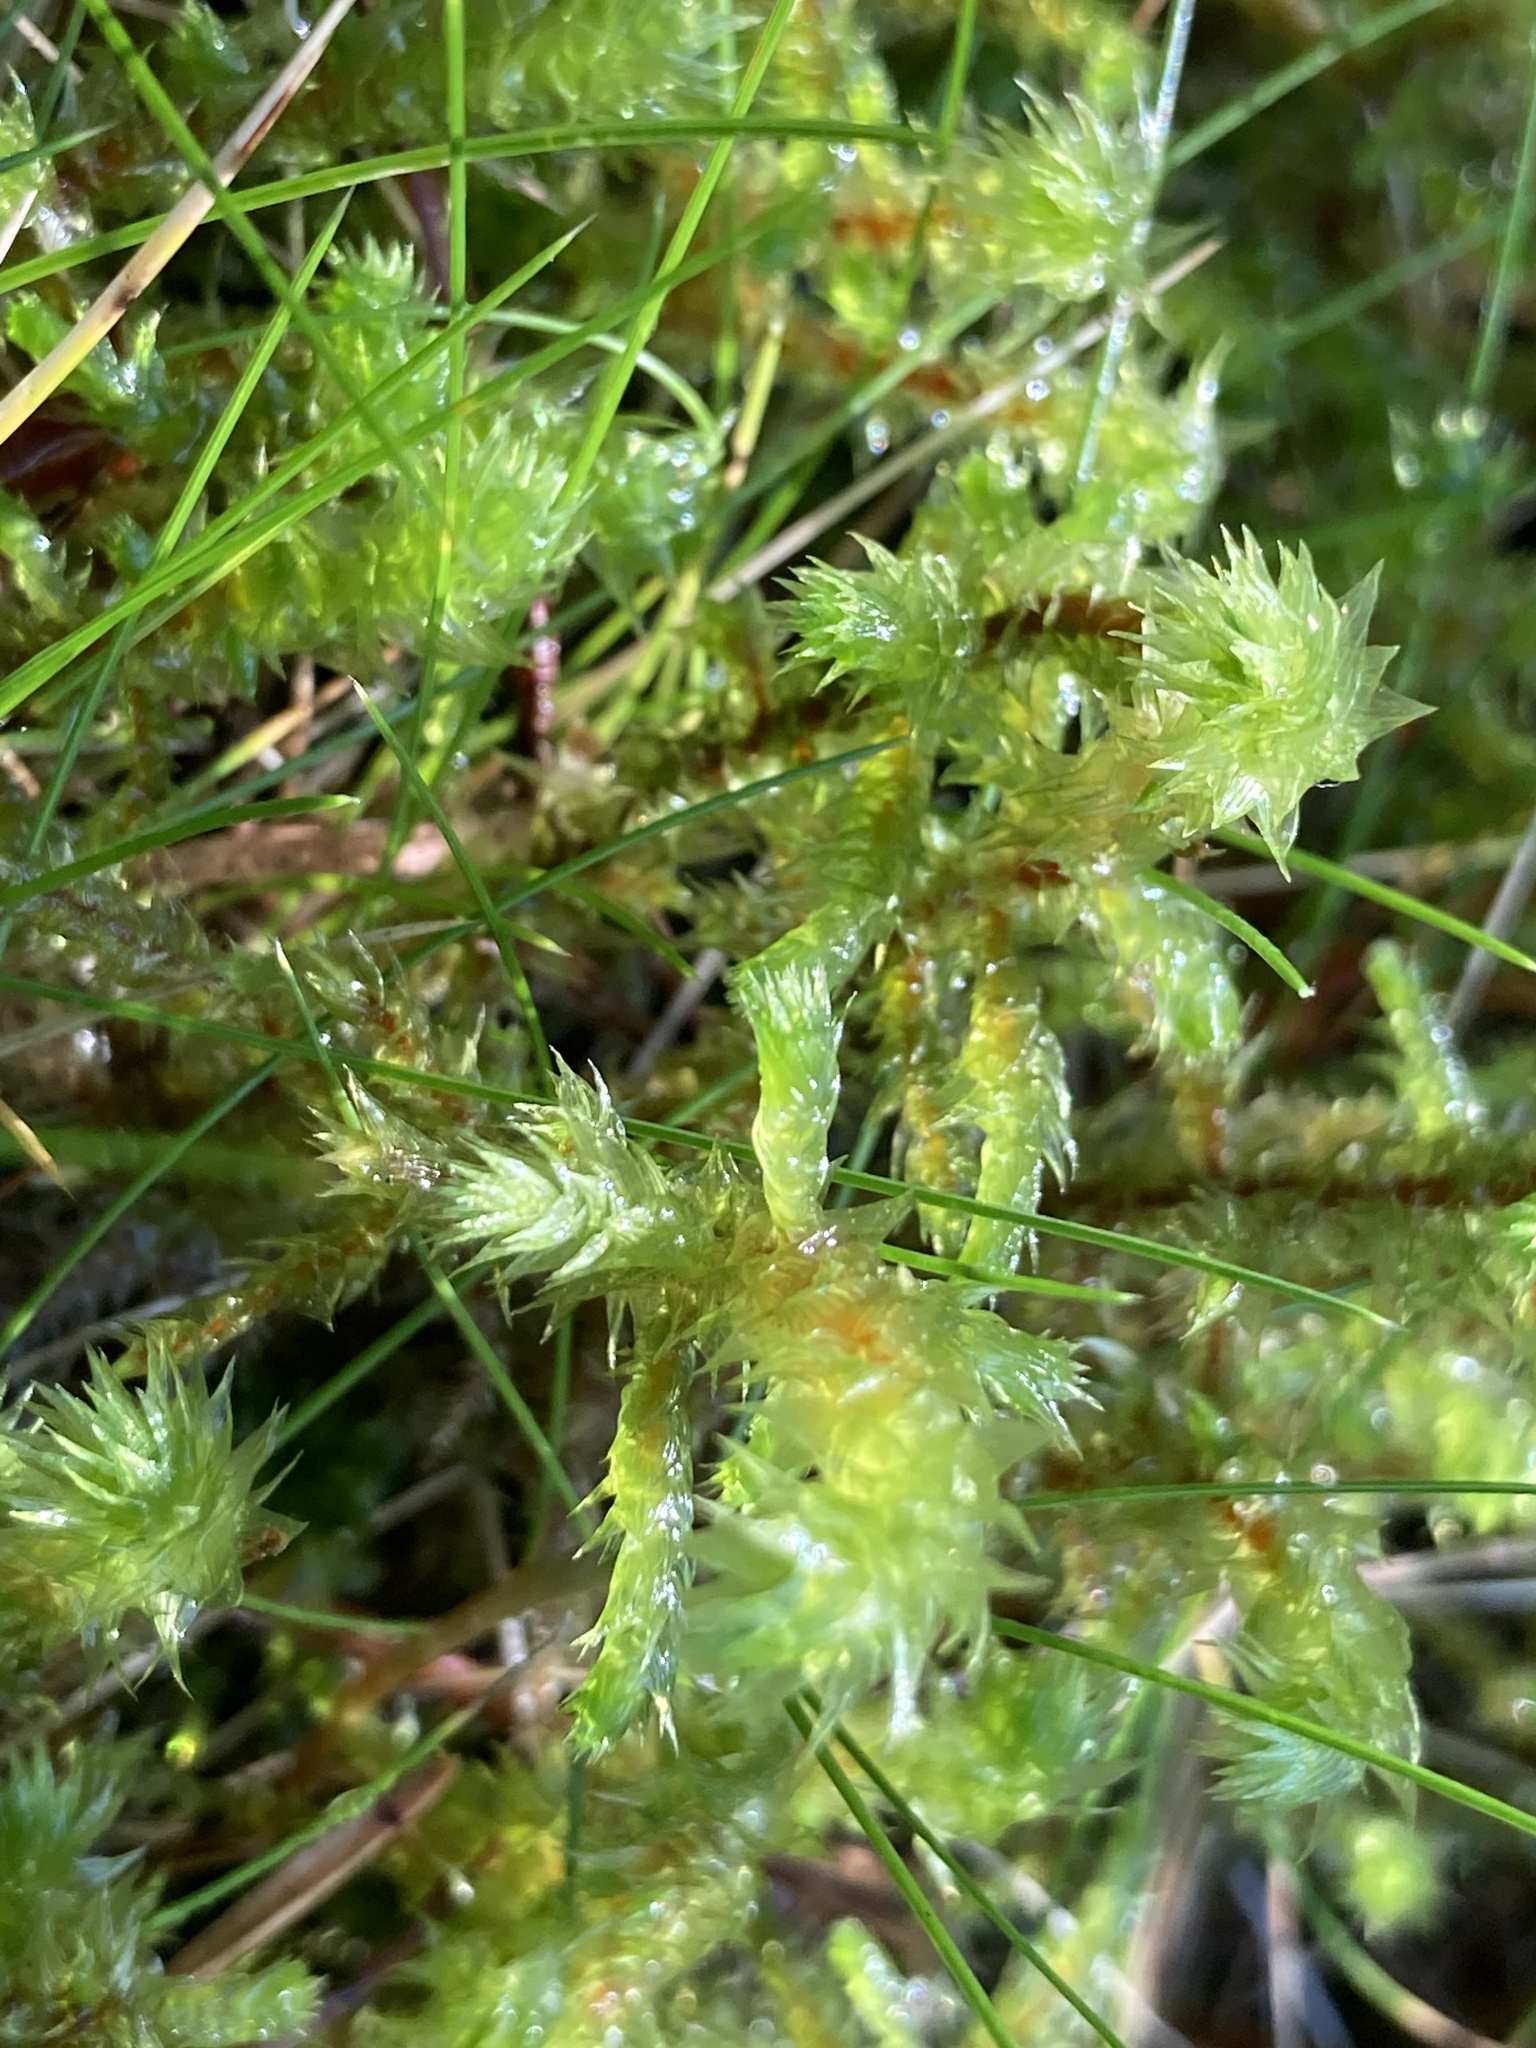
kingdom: Plantae
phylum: Bryophyta
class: Bryopsida
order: Hypnales
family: Hylocomiaceae
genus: Hylocomiadelphus
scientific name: Hylocomiadelphus triquetrus
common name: Rough goose neck moss
